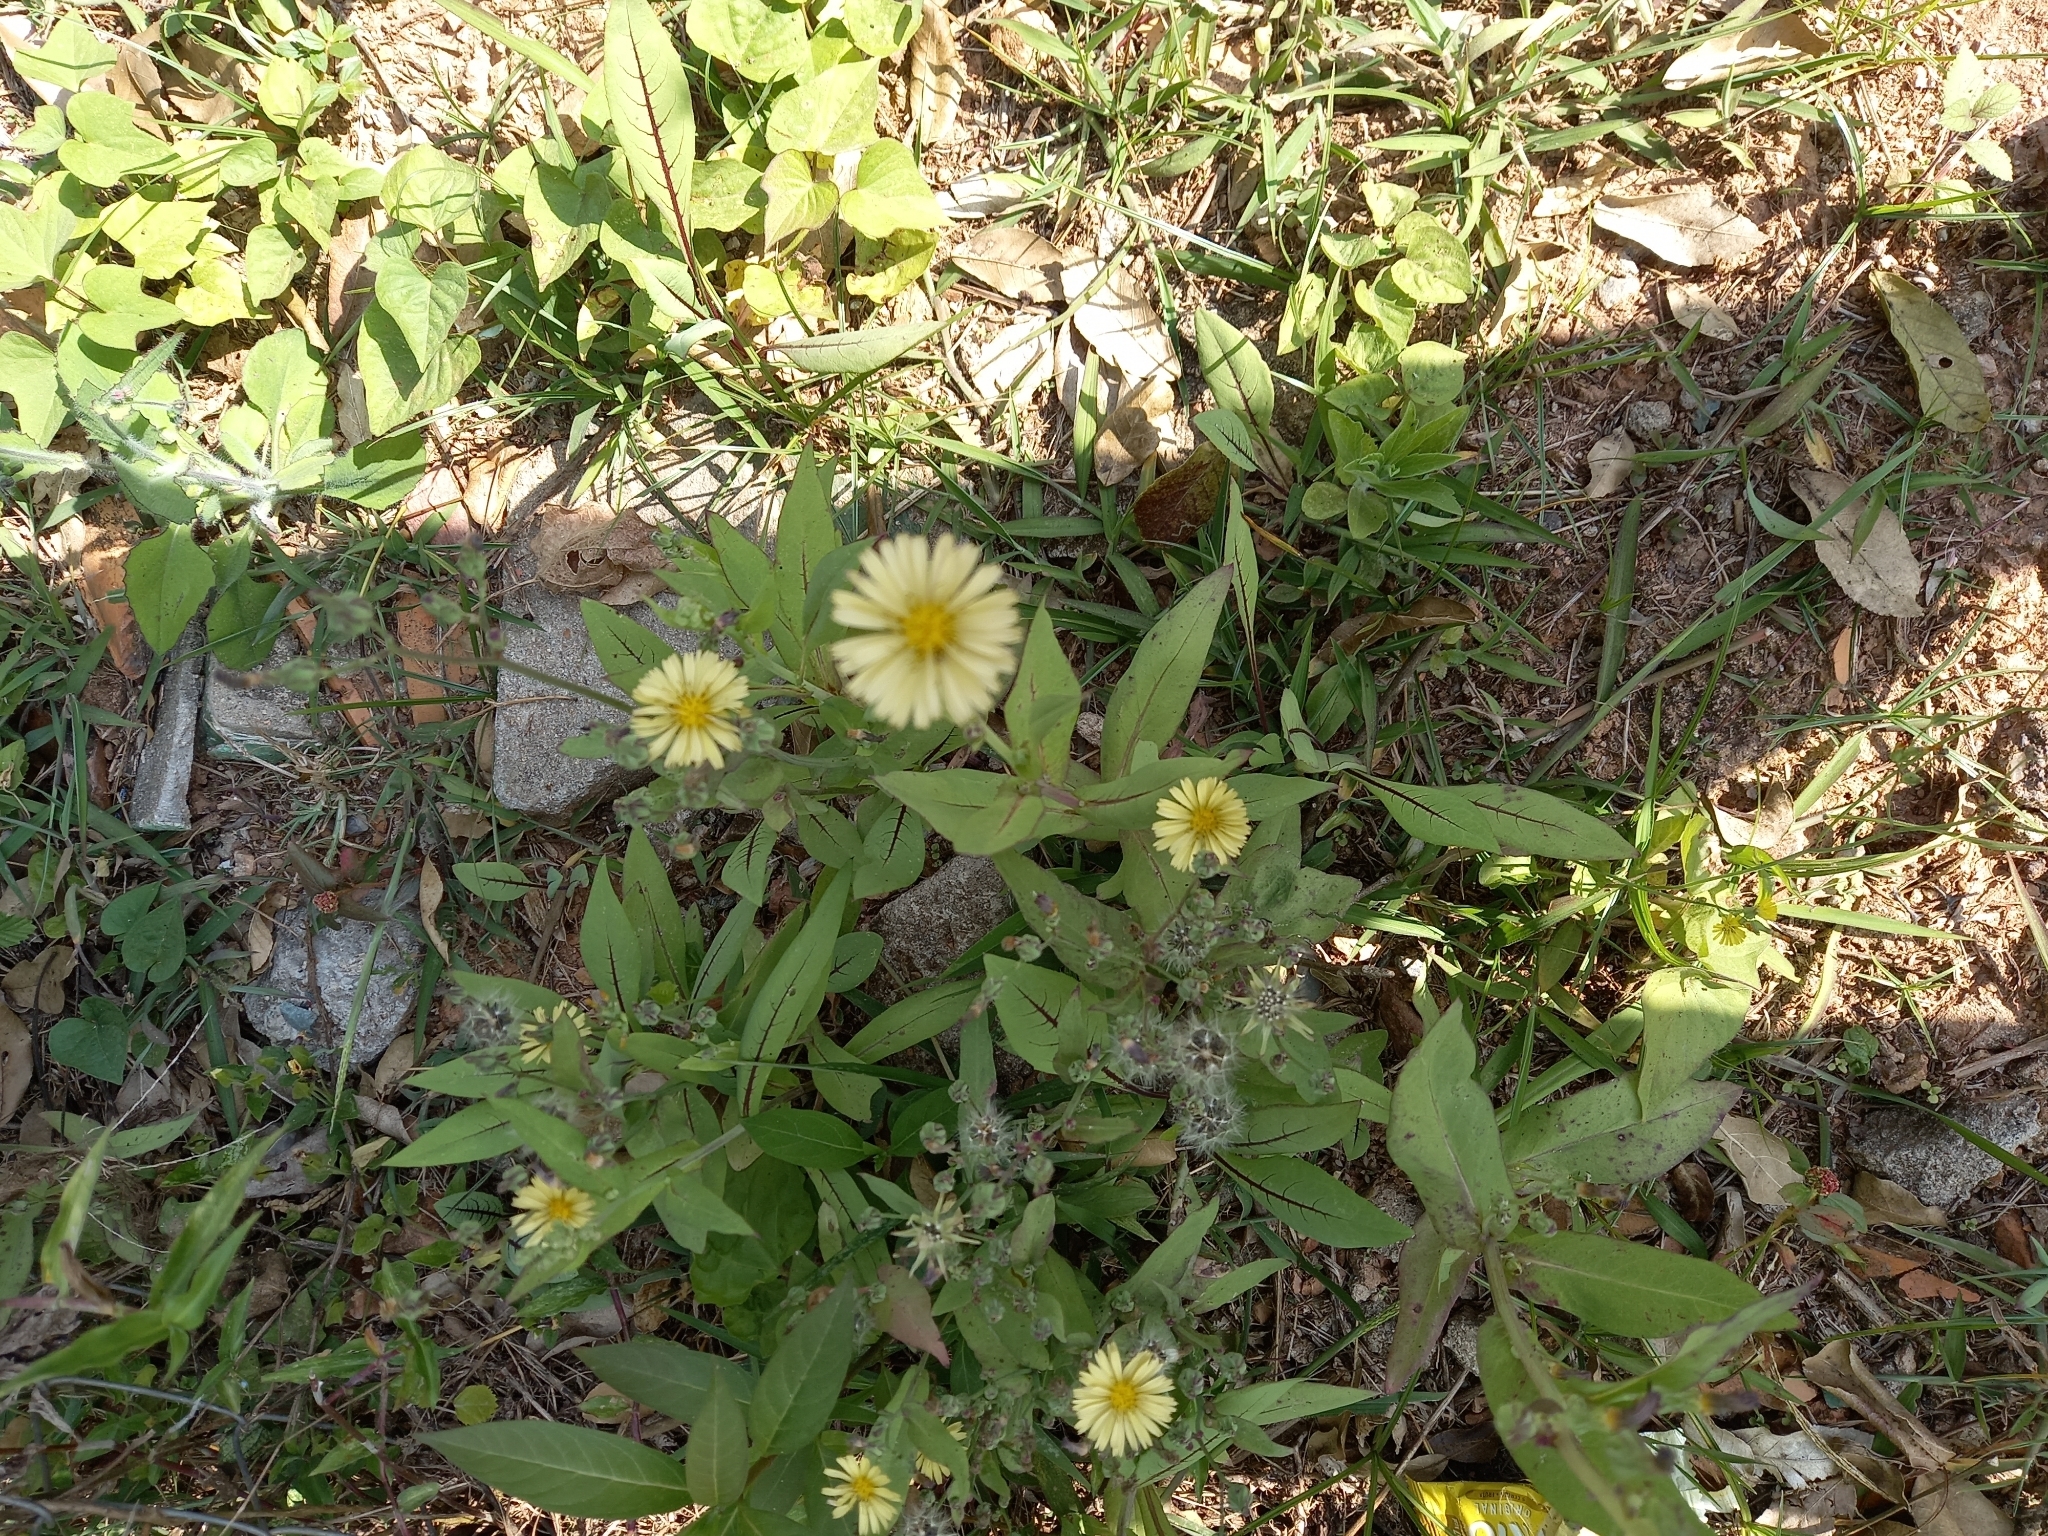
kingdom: Plantae
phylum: Tracheophyta
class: Magnoliopsida
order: Asterales
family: Asteraceae
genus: Lactuca
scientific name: Lactuca indica
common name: Wild lettuce
